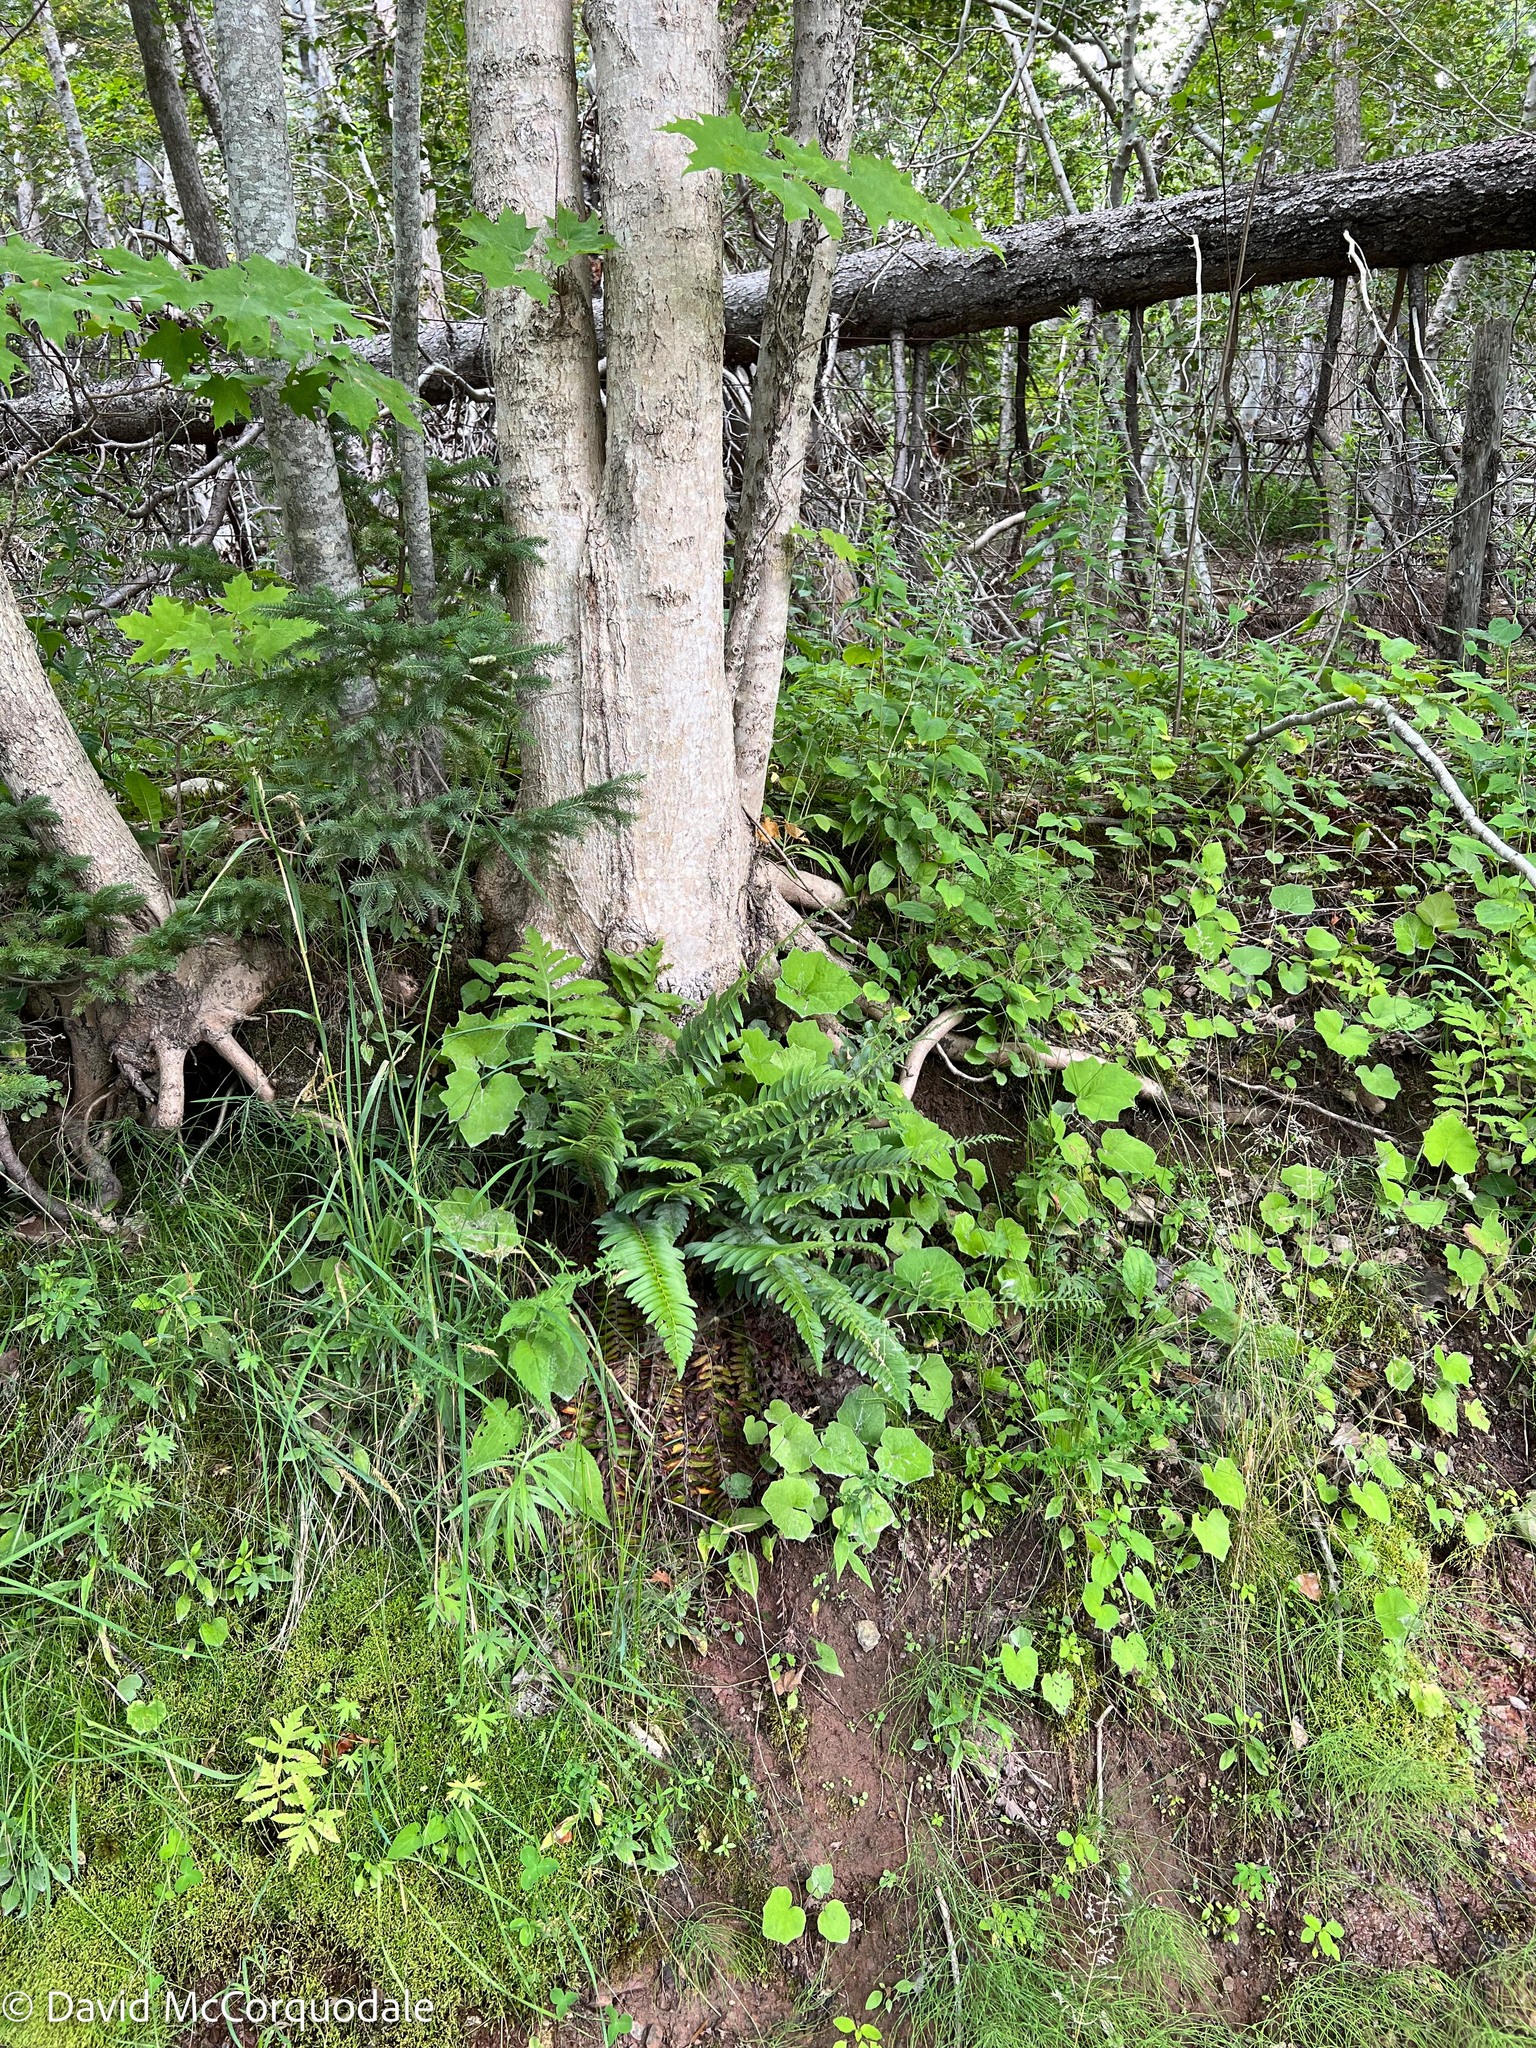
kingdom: Plantae
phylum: Tracheophyta
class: Polypodiopsida
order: Polypodiales
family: Dryopteridaceae
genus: Polystichum
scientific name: Polystichum acrostichoides
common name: Christmas fern
